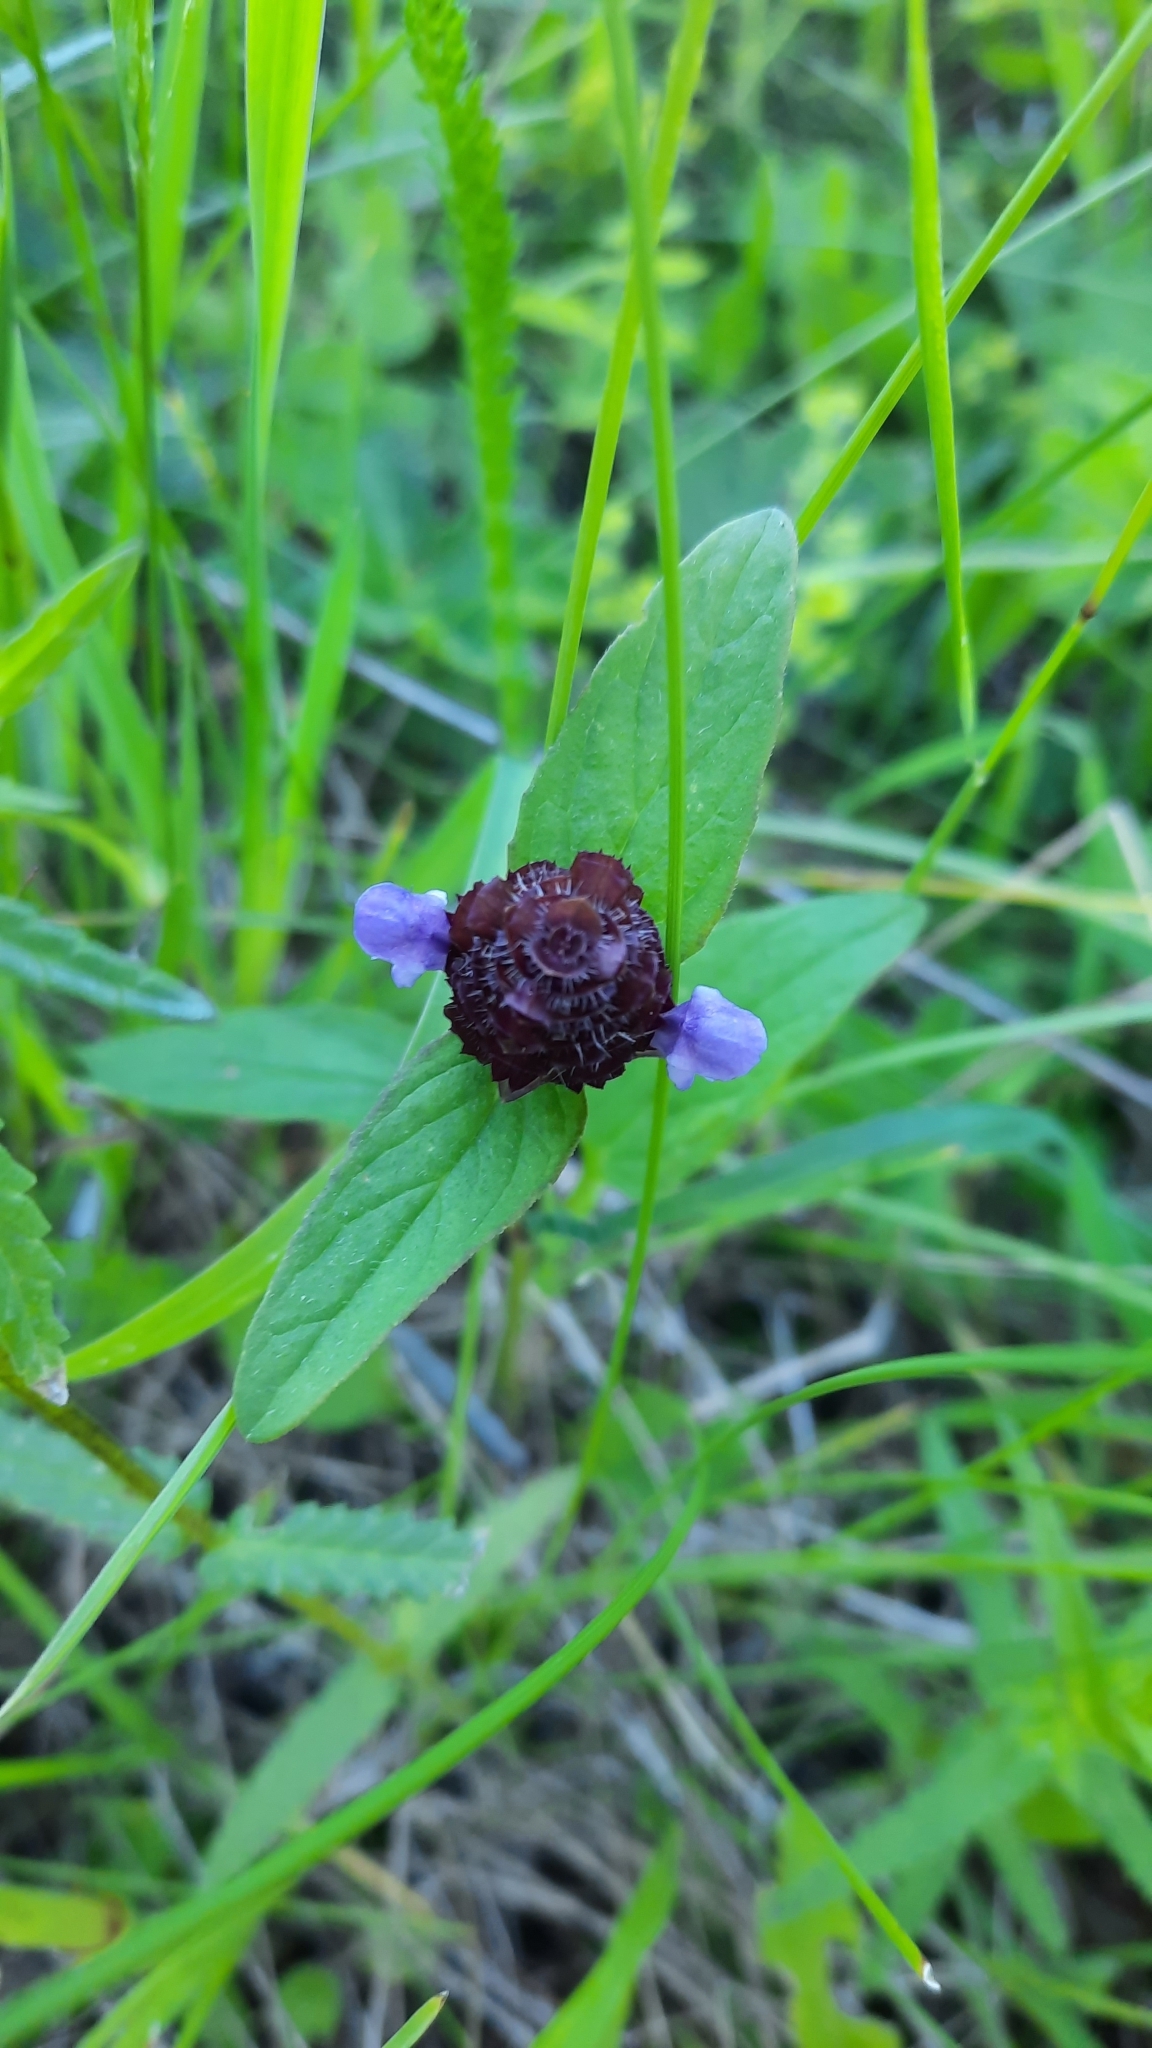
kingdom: Plantae
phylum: Tracheophyta
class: Magnoliopsida
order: Lamiales
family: Lamiaceae
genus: Prunella
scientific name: Prunella vulgaris
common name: Heal-all
